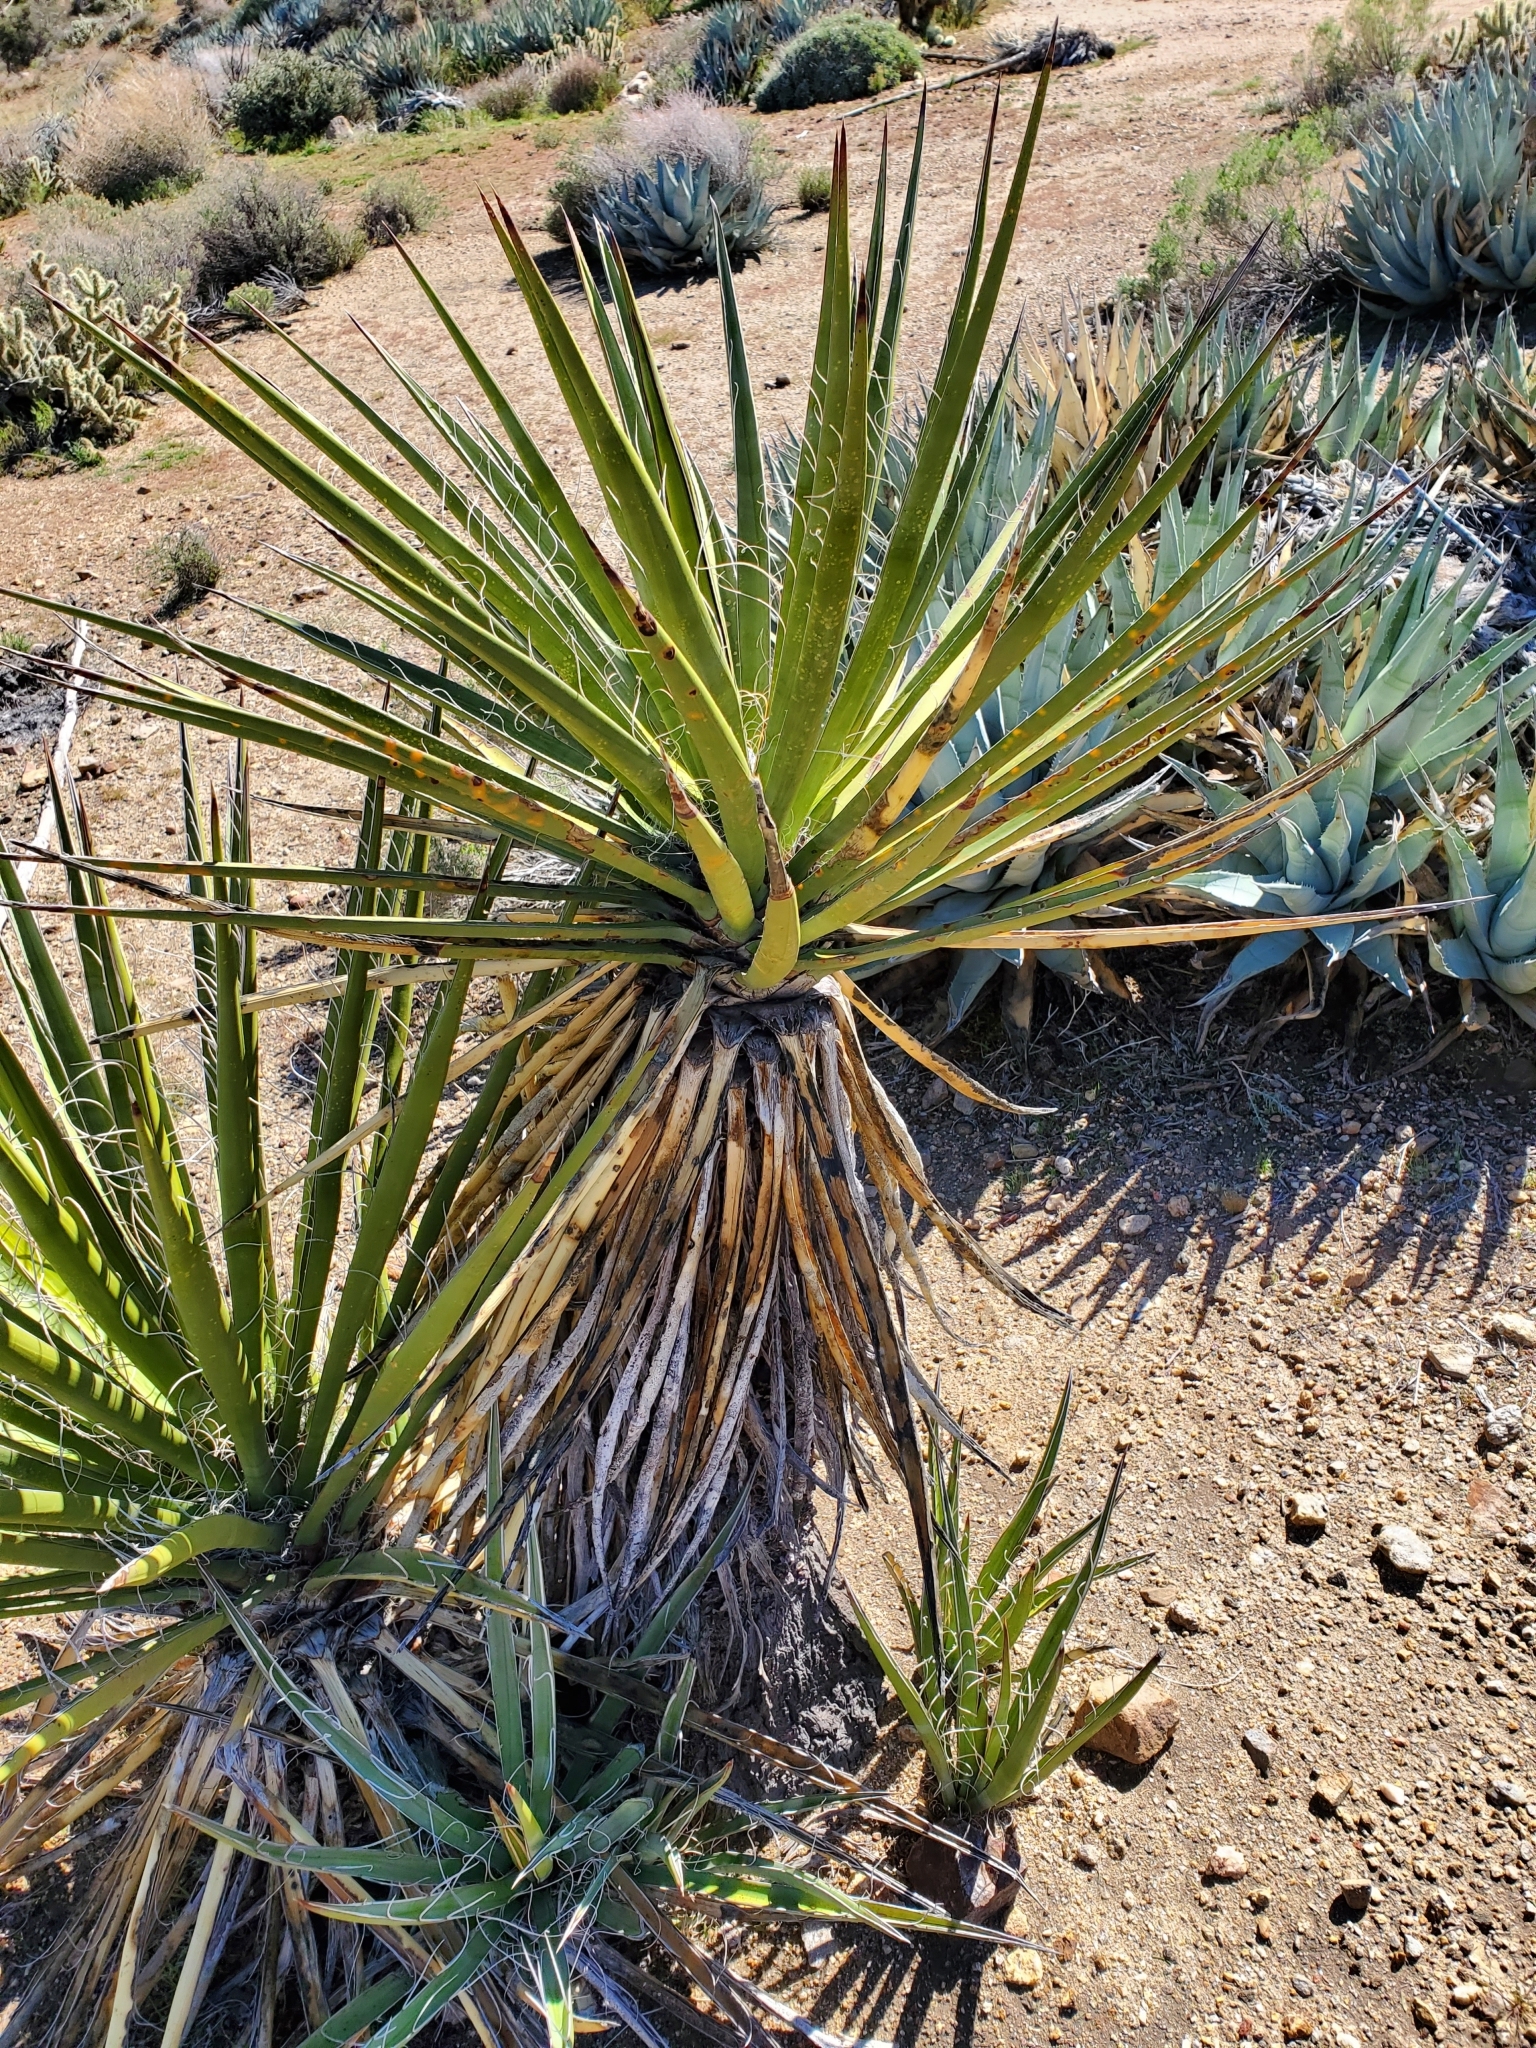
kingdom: Plantae
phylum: Tracheophyta
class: Liliopsida
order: Asparagales
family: Asparagaceae
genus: Yucca
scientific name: Yucca schidigera
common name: Mojave yucca
